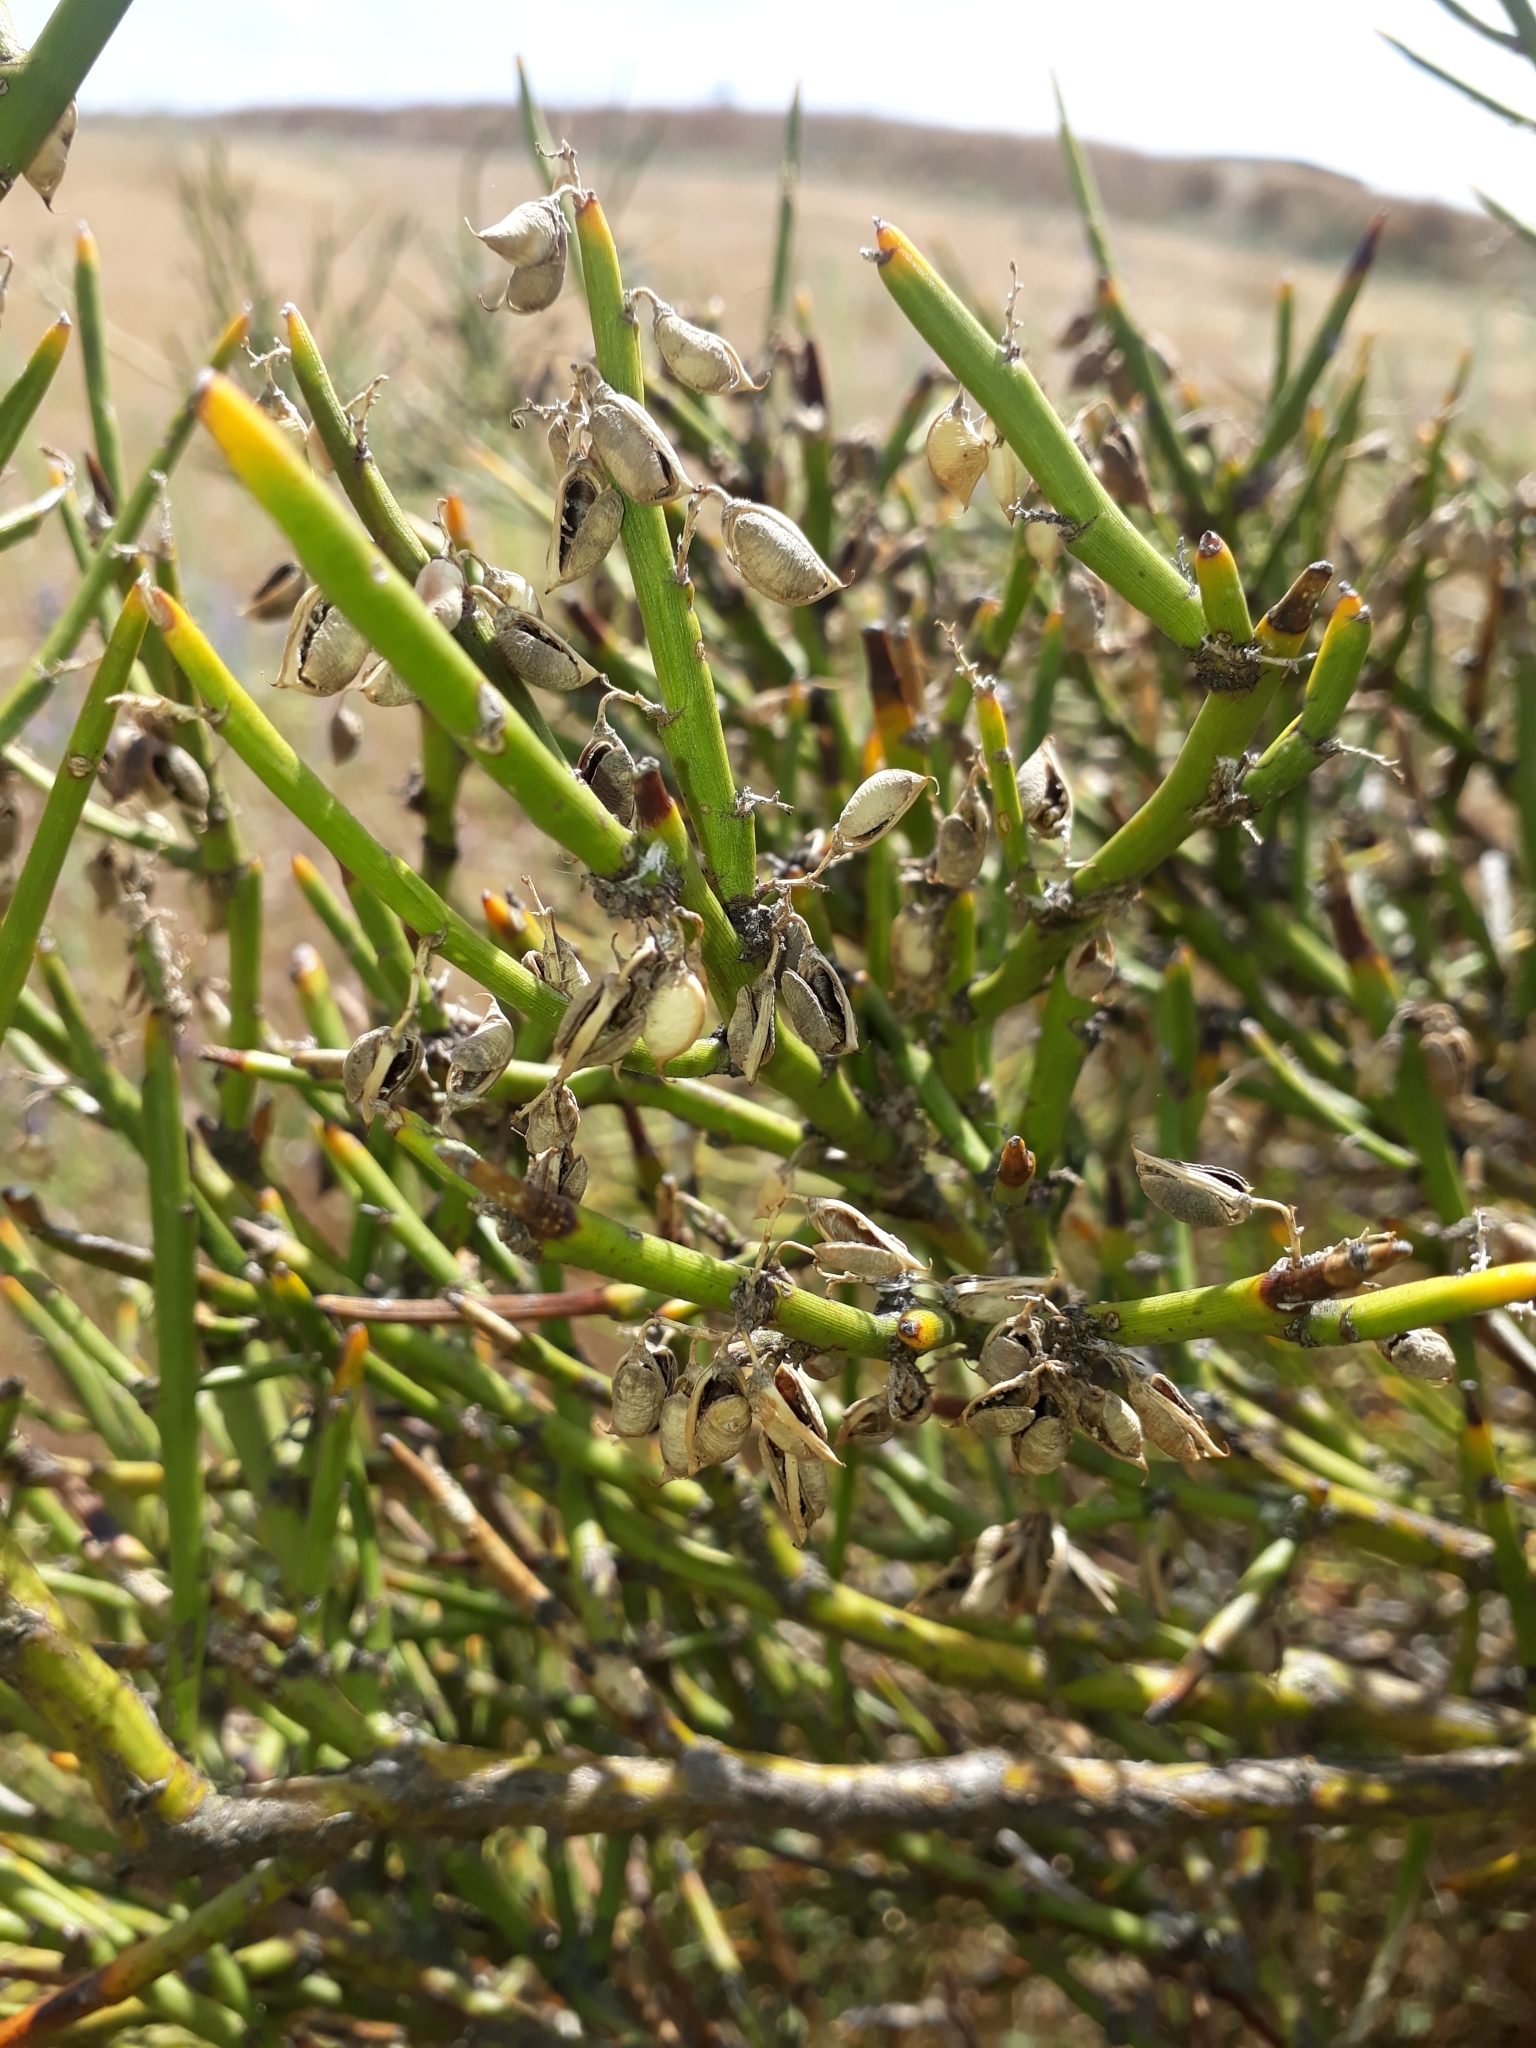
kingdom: Plantae
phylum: Tracheophyta
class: Magnoliopsida
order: Fabales
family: Fabaceae
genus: Carmichaelia
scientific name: Carmichaelia petriei
